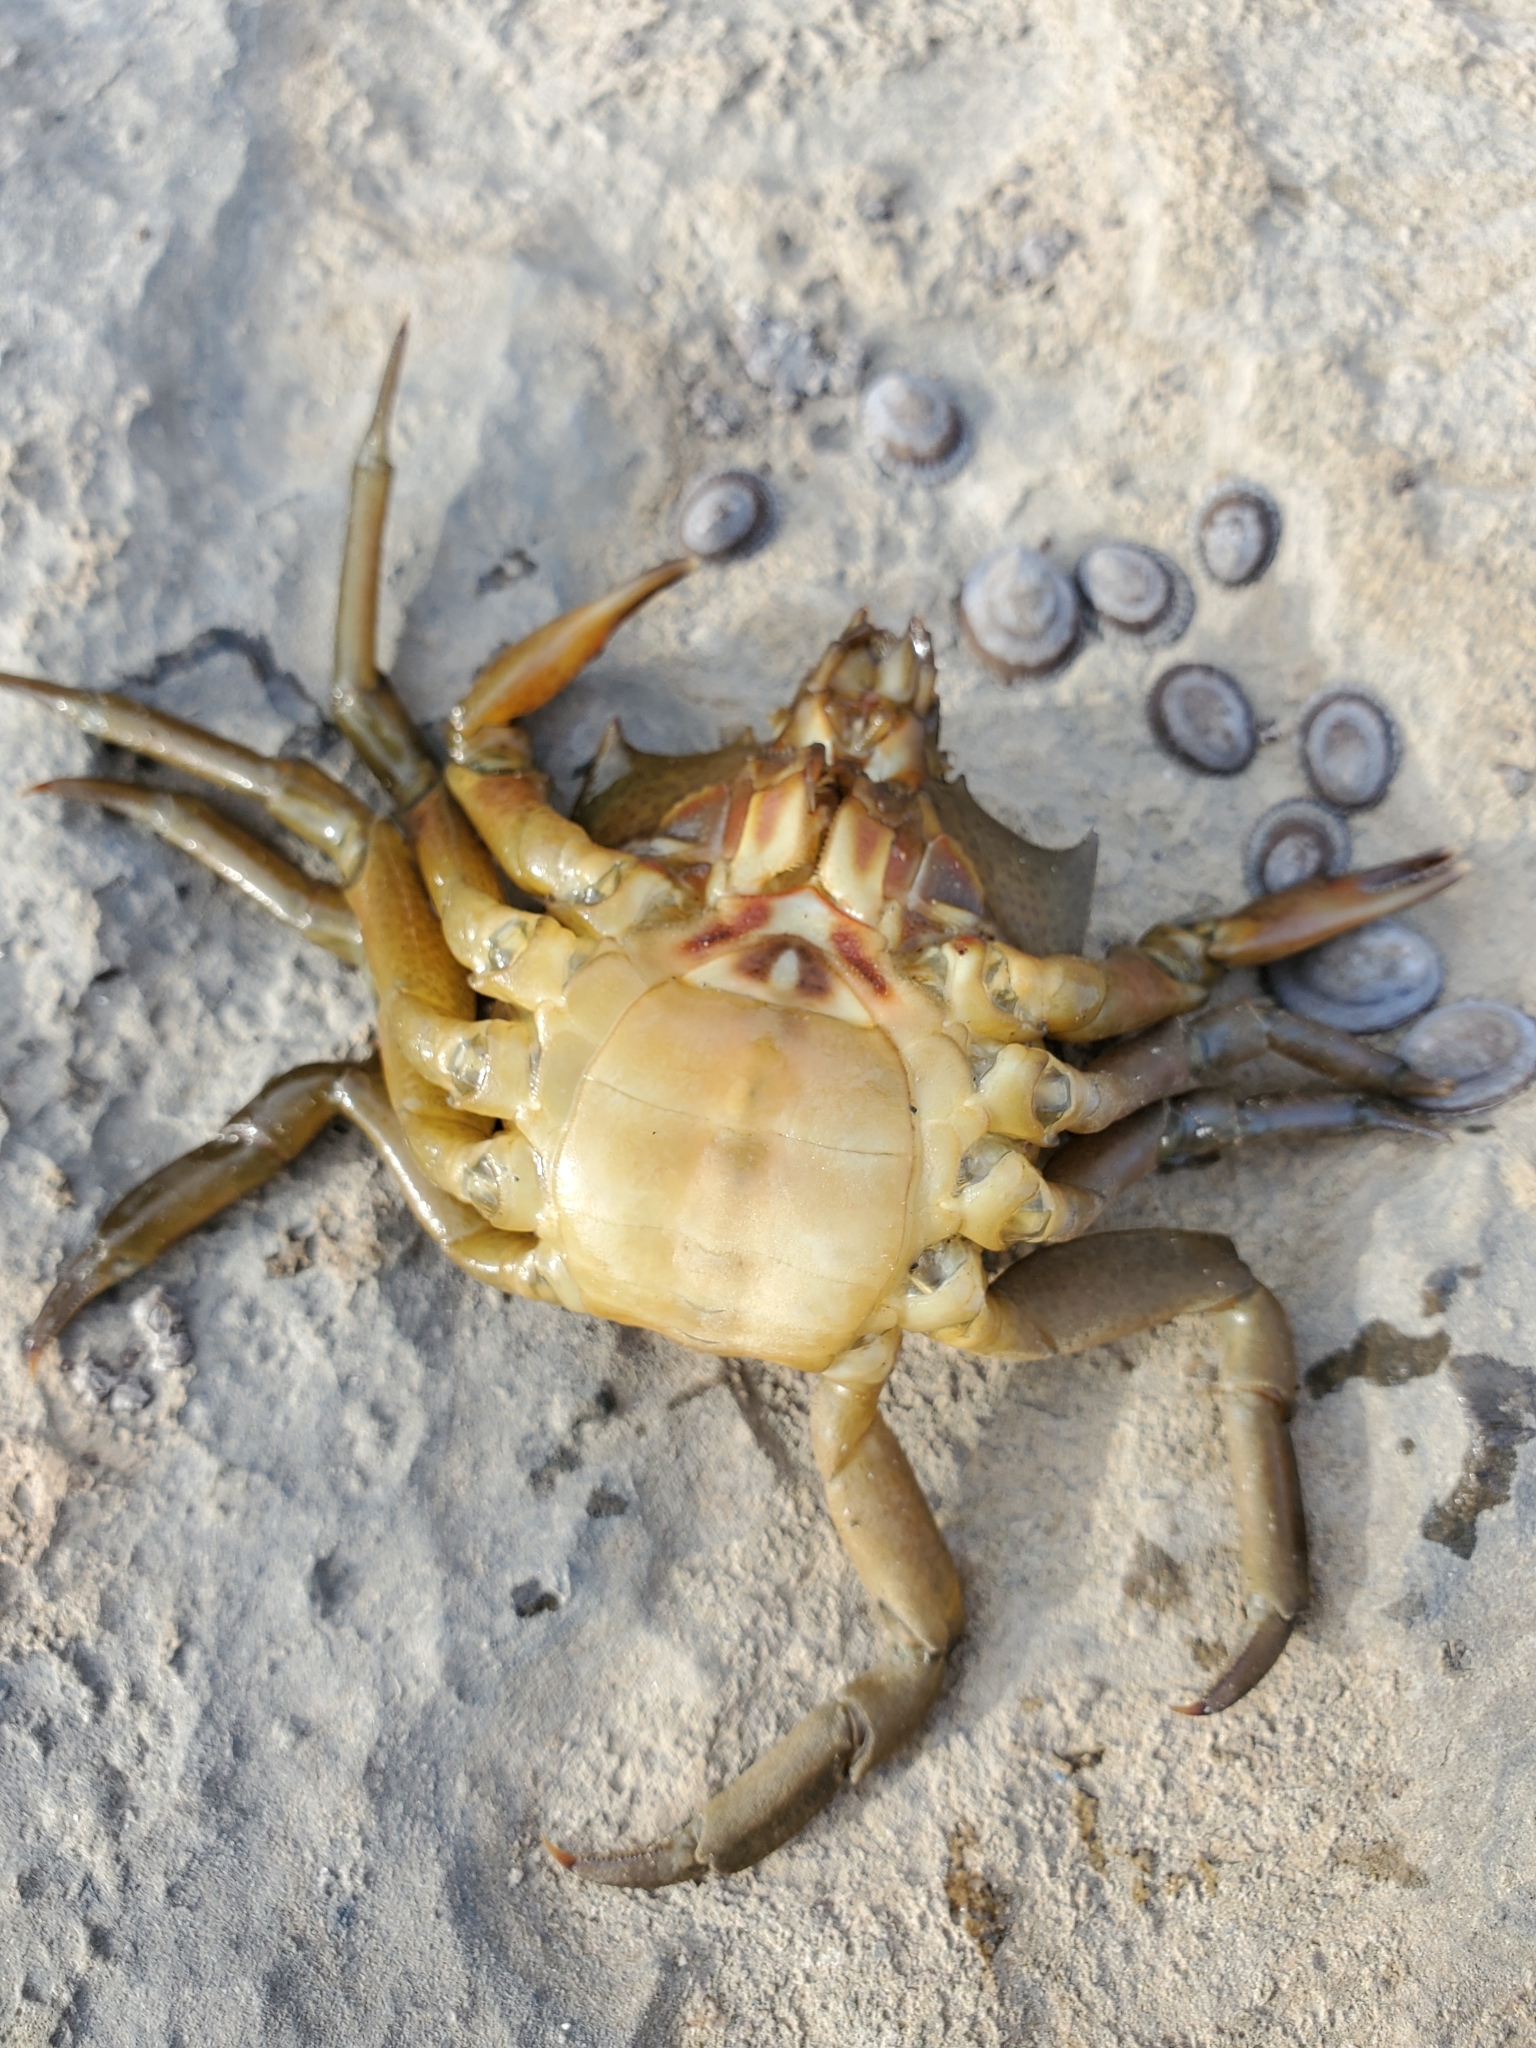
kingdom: Animalia
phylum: Arthropoda
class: Malacostraca
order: Decapoda
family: Epialtidae
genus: Pugettia
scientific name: Pugettia producta
